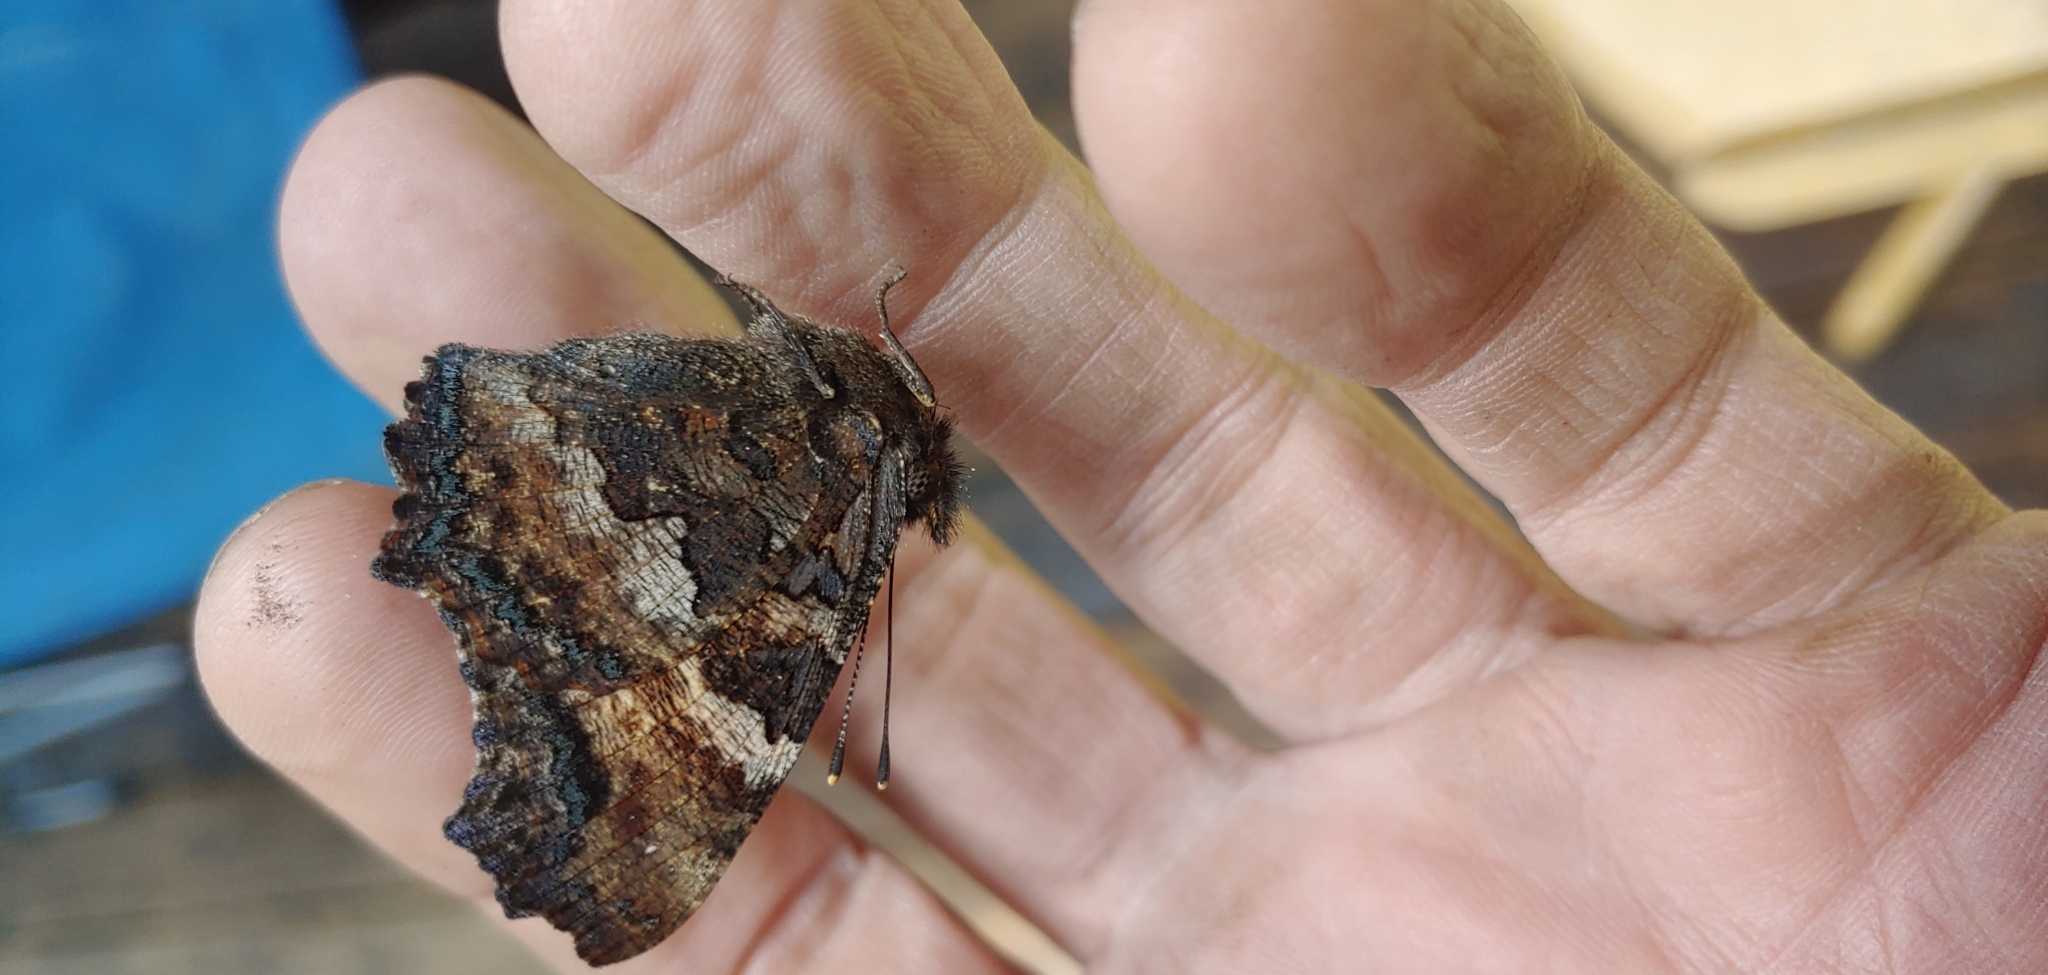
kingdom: Animalia
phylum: Arthropoda
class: Insecta
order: Lepidoptera
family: Nymphalidae
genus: Nymphalis
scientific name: Nymphalis californica
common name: California tortoiseshell
